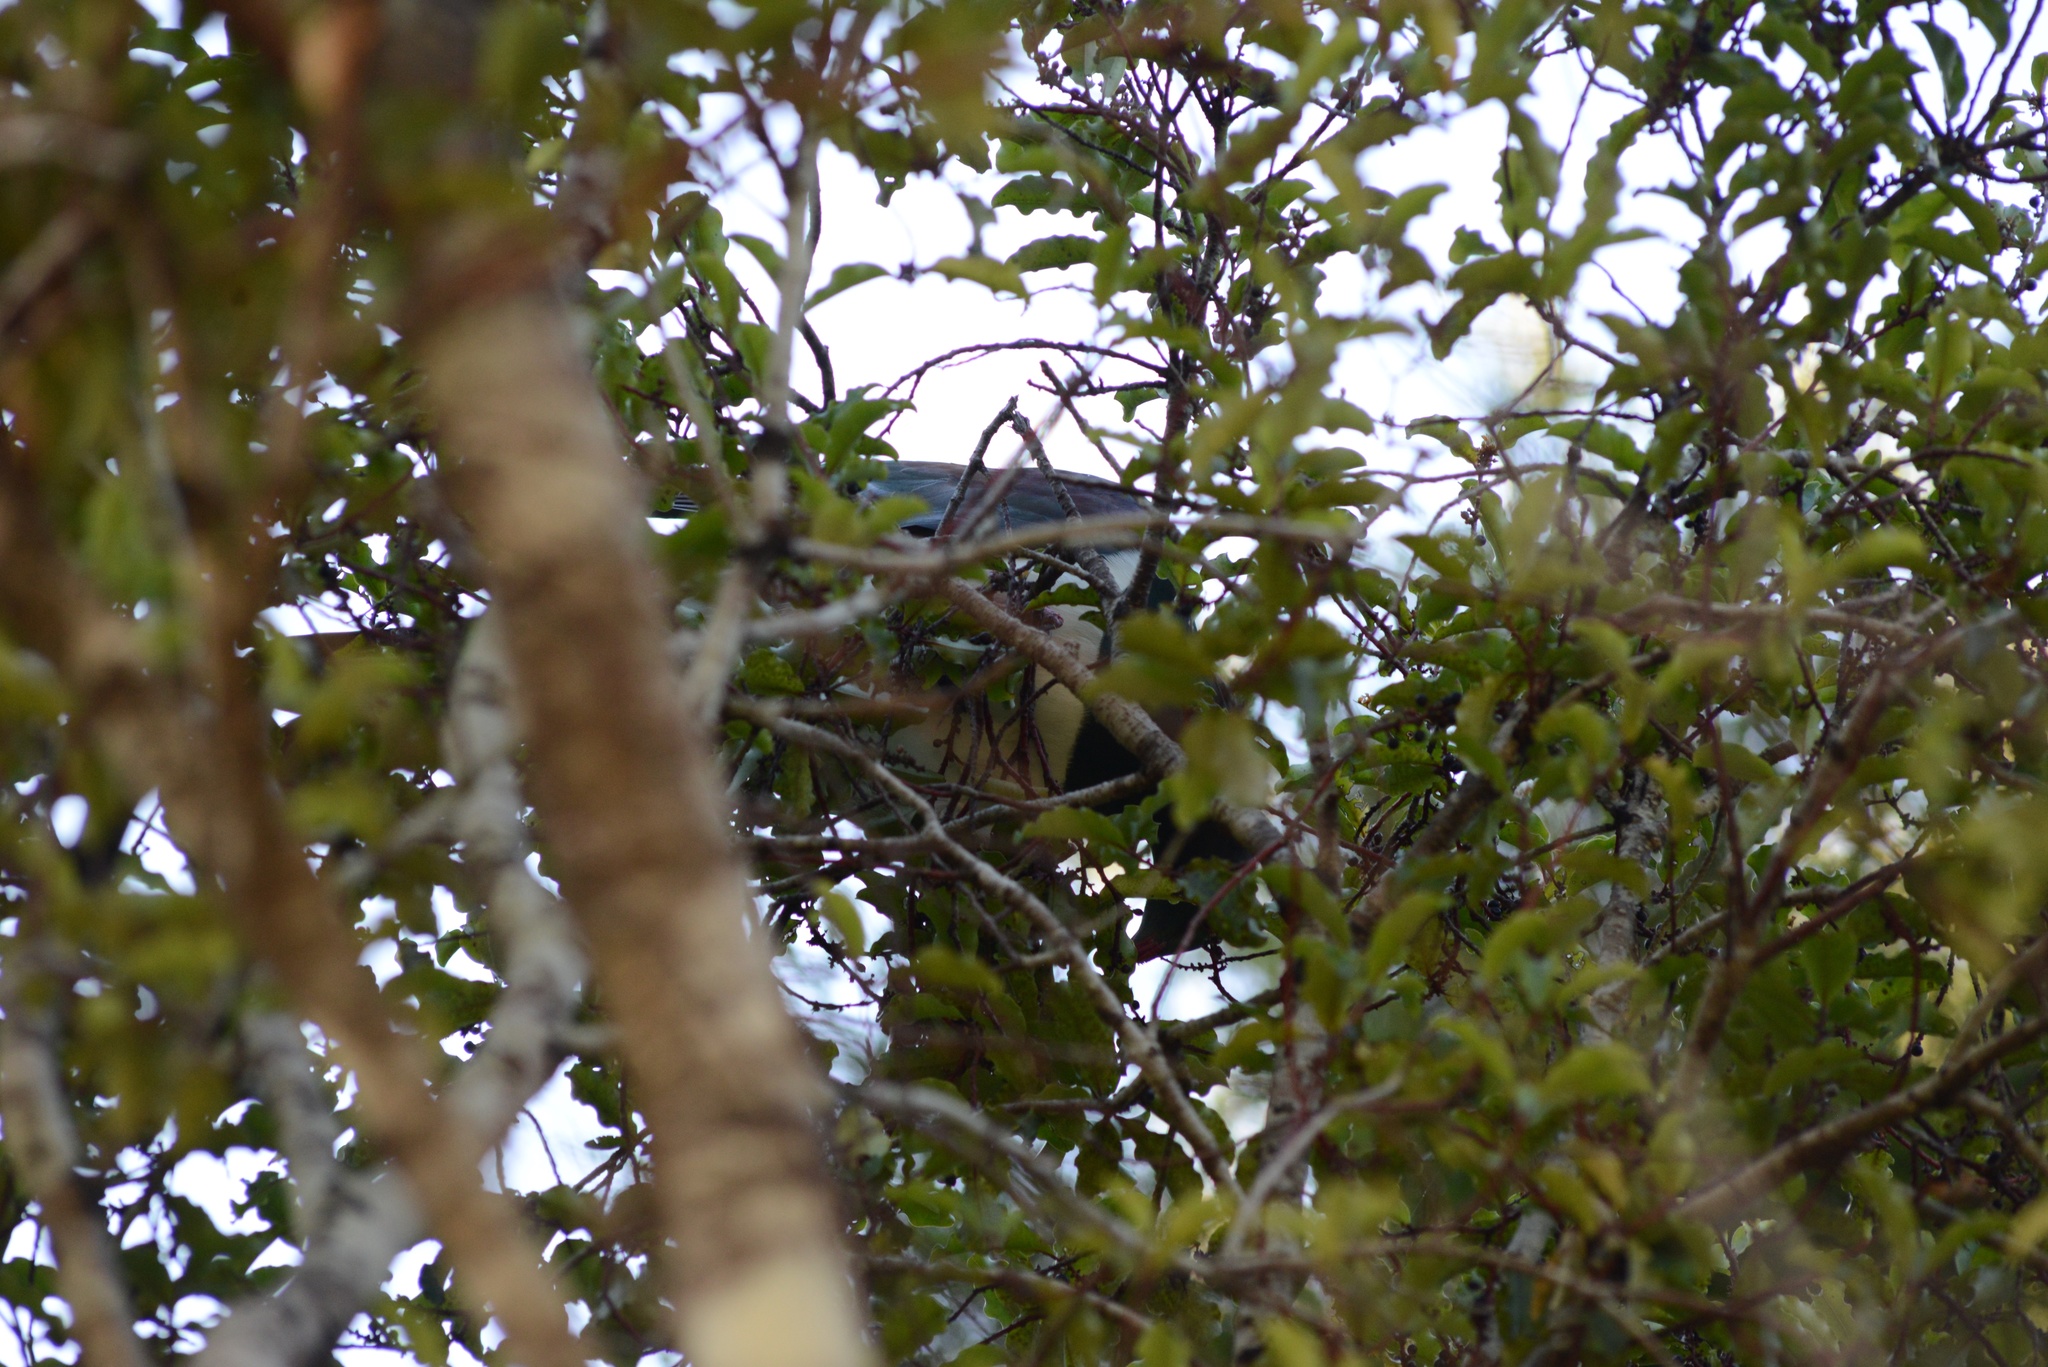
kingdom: Animalia
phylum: Chordata
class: Aves
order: Columbiformes
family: Columbidae
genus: Hemiphaga
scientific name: Hemiphaga novaeseelandiae
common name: New zealand pigeon
